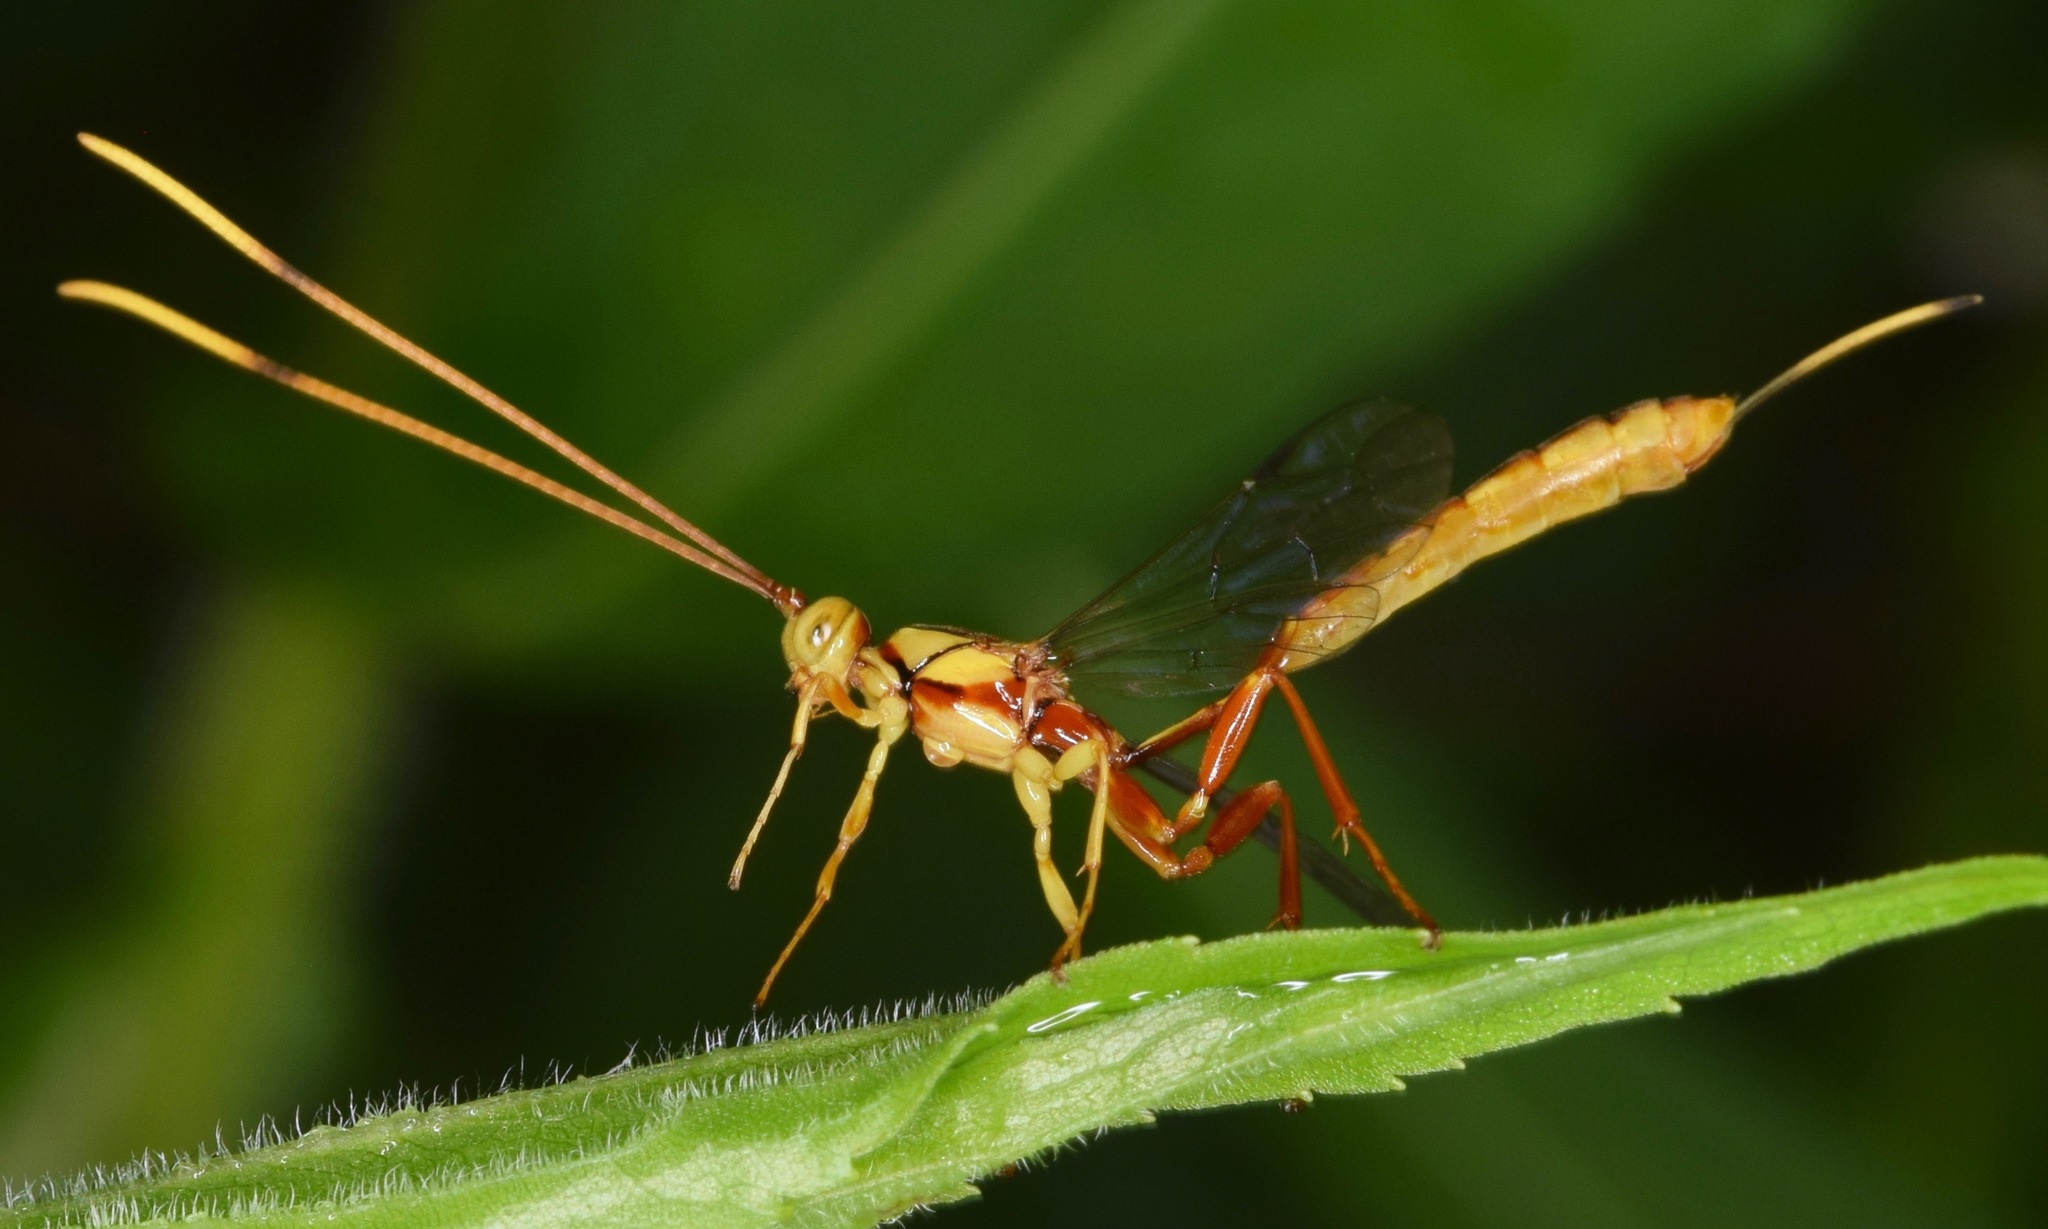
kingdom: Animalia
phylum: Arthropoda
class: Insecta
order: Hymenoptera
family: Ichneumonidae
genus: Grotea
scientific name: Grotea anguina
